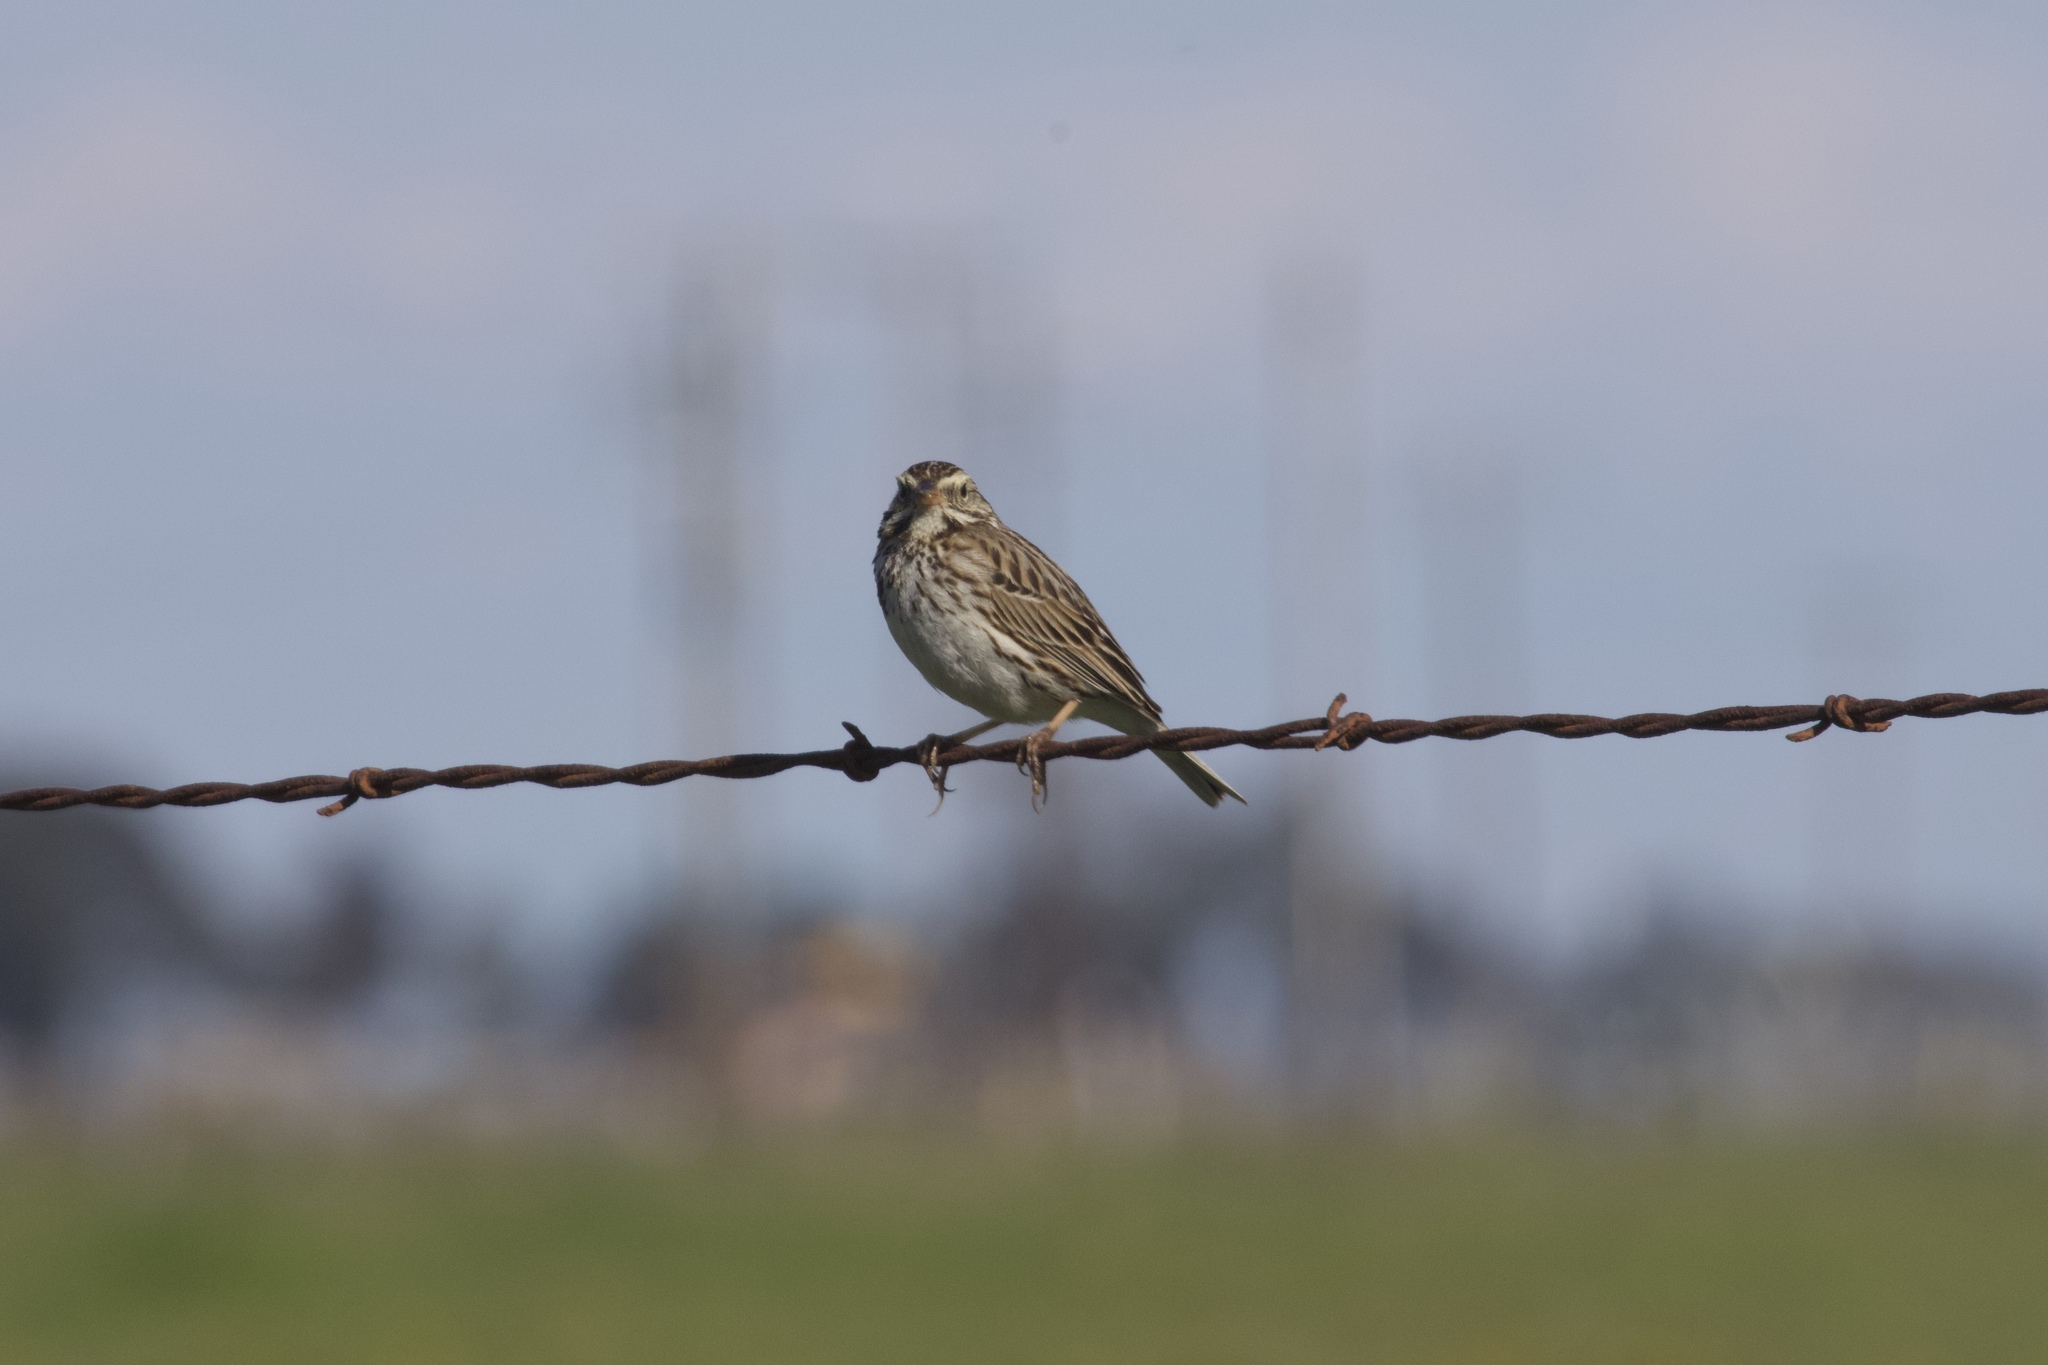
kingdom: Animalia
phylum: Chordata
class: Aves
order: Passeriformes
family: Passerellidae
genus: Passerculus
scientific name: Passerculus sandwichensis
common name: Savannah sparrow
